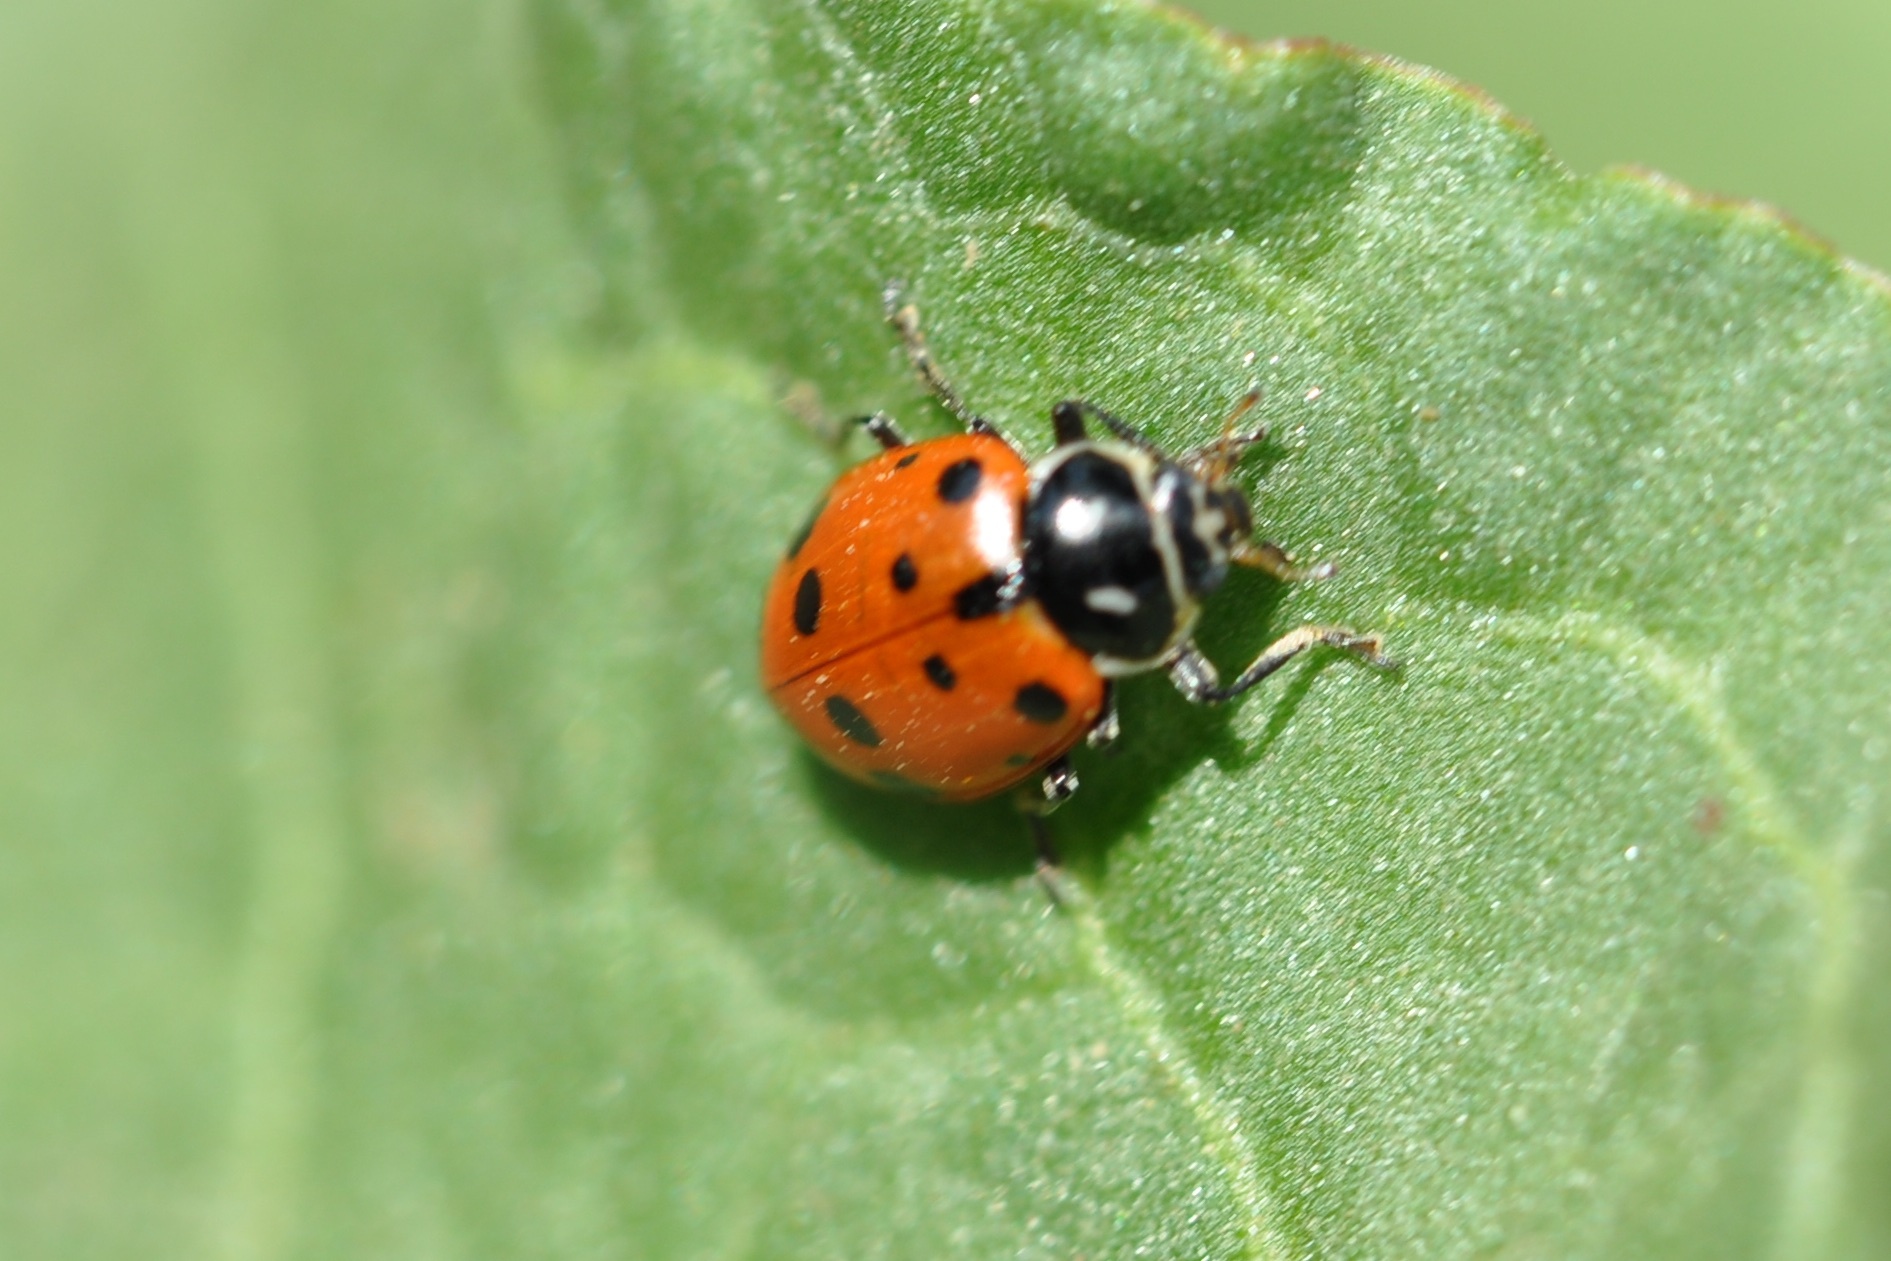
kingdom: Animalia
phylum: Arthropoda
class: Insecta
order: Coleoptera
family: Coccinellidae
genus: Hippodamia
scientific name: Hippodamia convergens
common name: Convergent lady beetle
